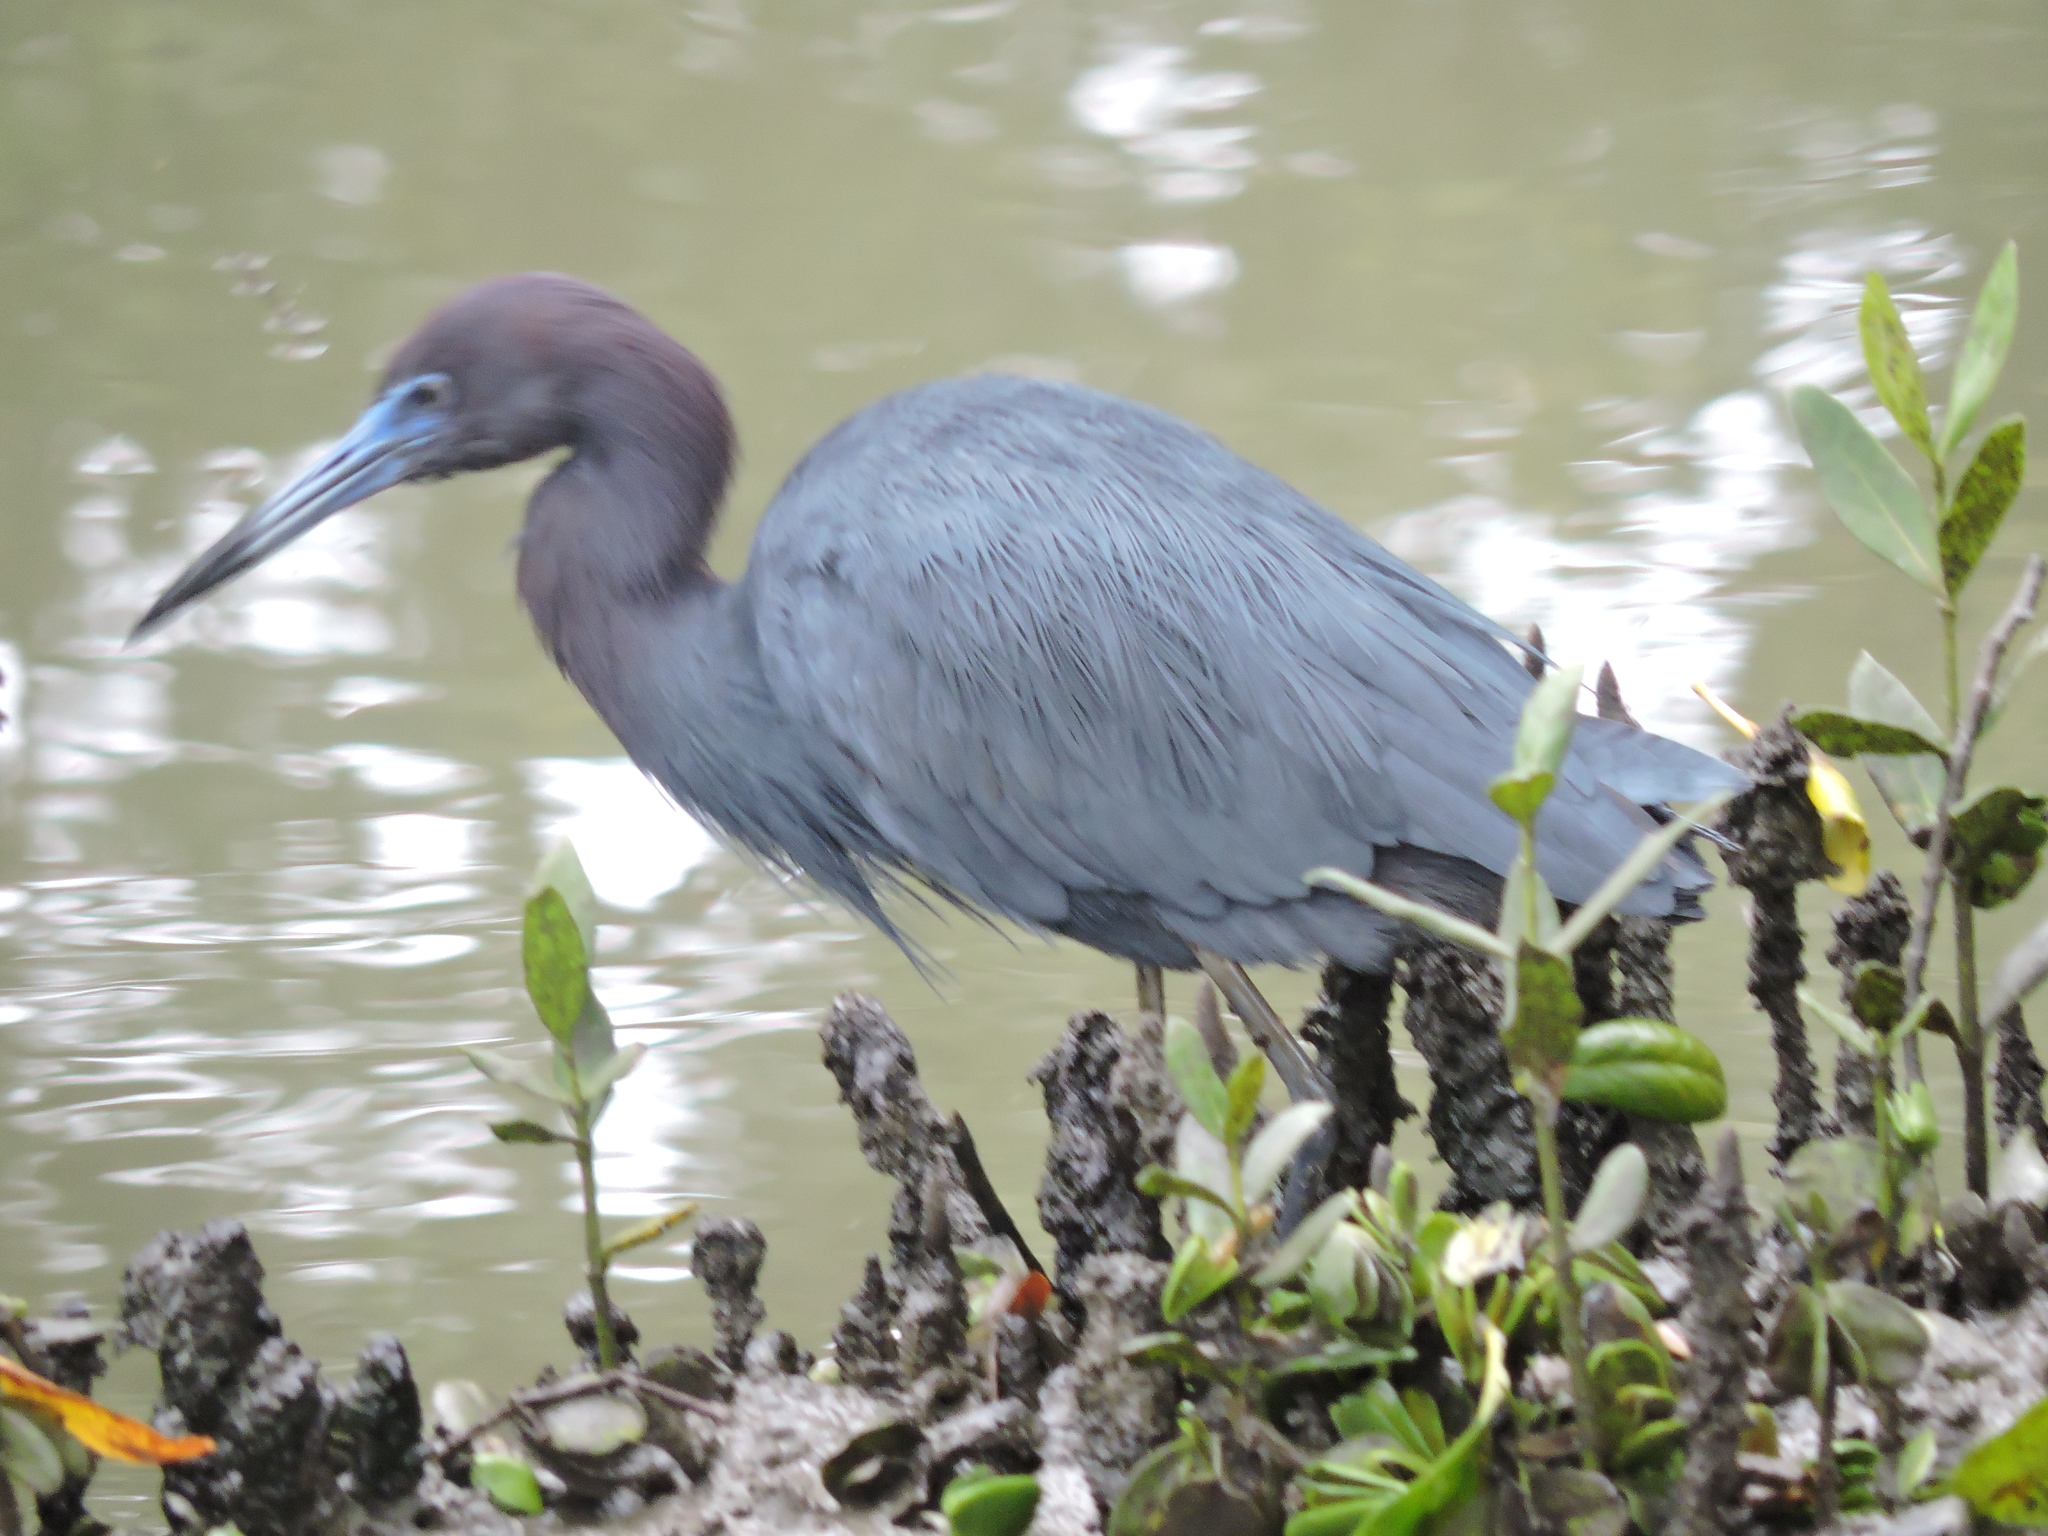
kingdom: Animalia
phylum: Chordata
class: Aves
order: Pelecaniformes
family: Ardeidae
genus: Egretta
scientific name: Egretta caerulea
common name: Little blue heron
